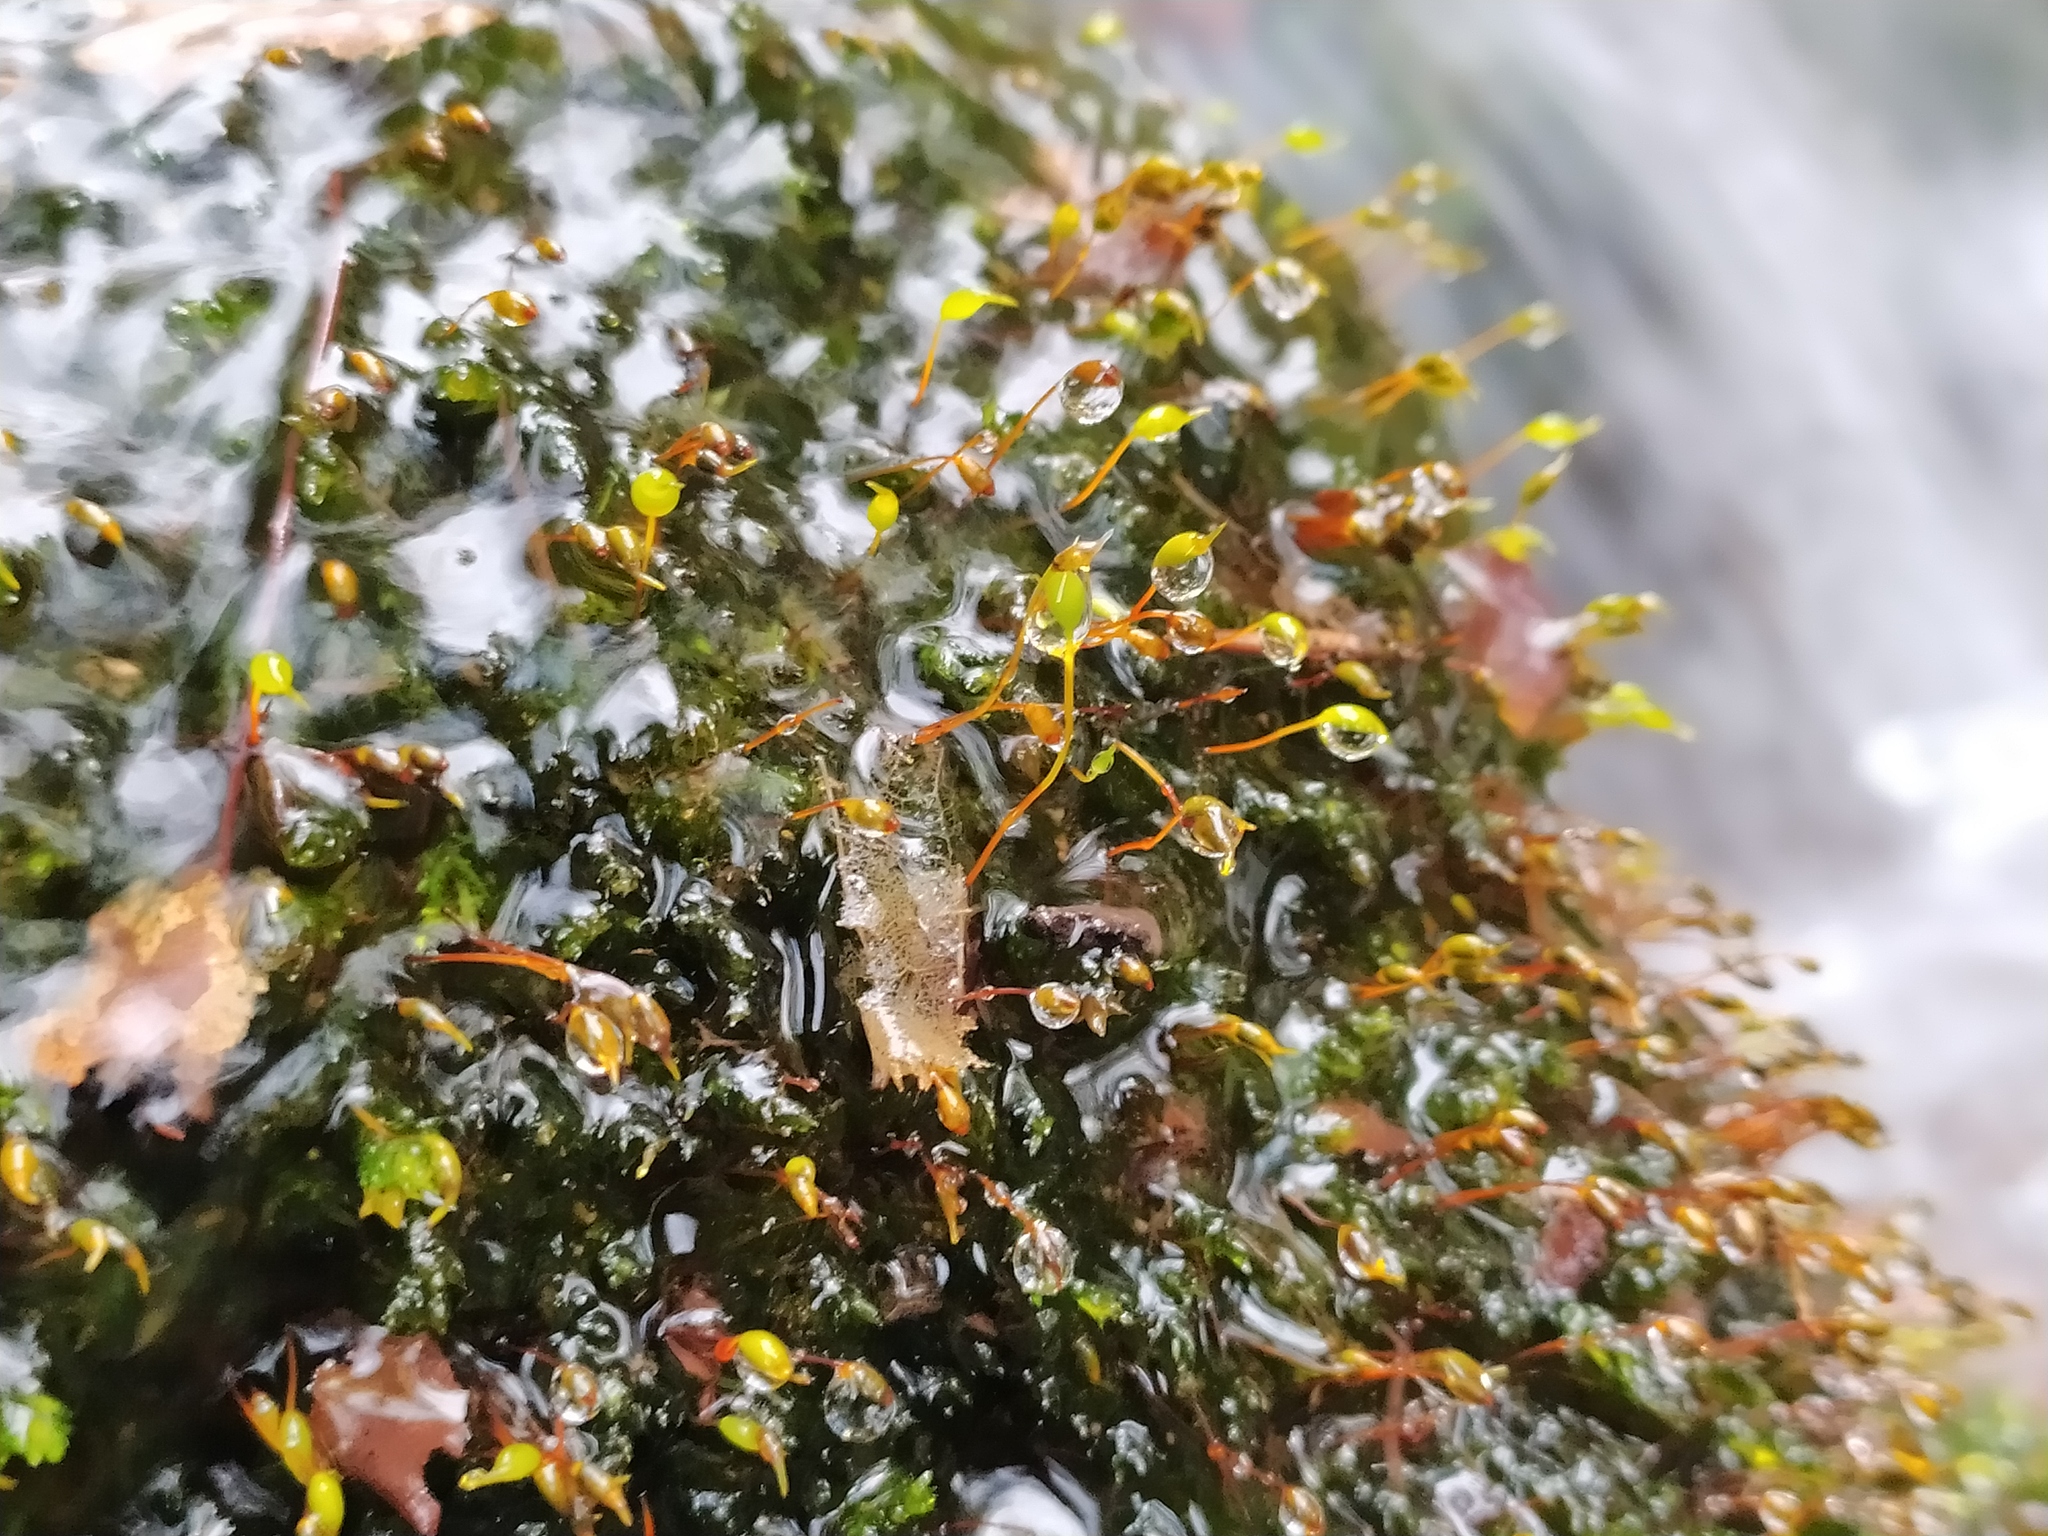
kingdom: Plantae
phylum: Bryophyta
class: Bryopsida
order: Hypnales
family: Brachytheciaceae
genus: Rhynchostegium
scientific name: Rhynchostegium riparioides
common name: Platyhypnidium moss
